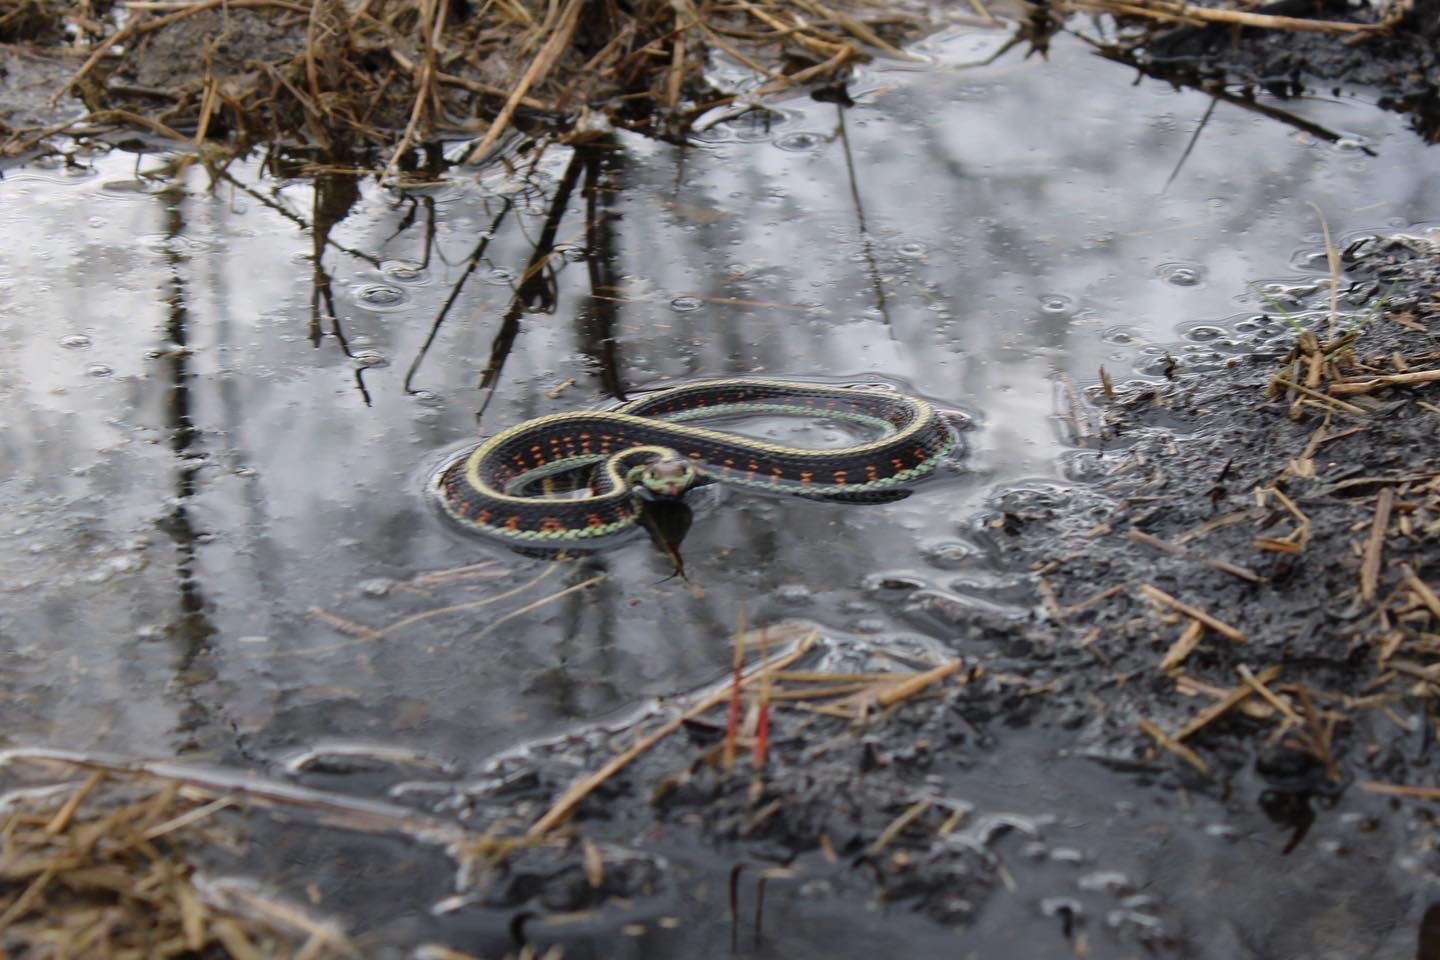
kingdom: Animalia
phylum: Chordata
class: Squamata
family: Colubridae
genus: Thamnophis
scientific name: Thamnophis sirtalis
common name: Common garter snake
